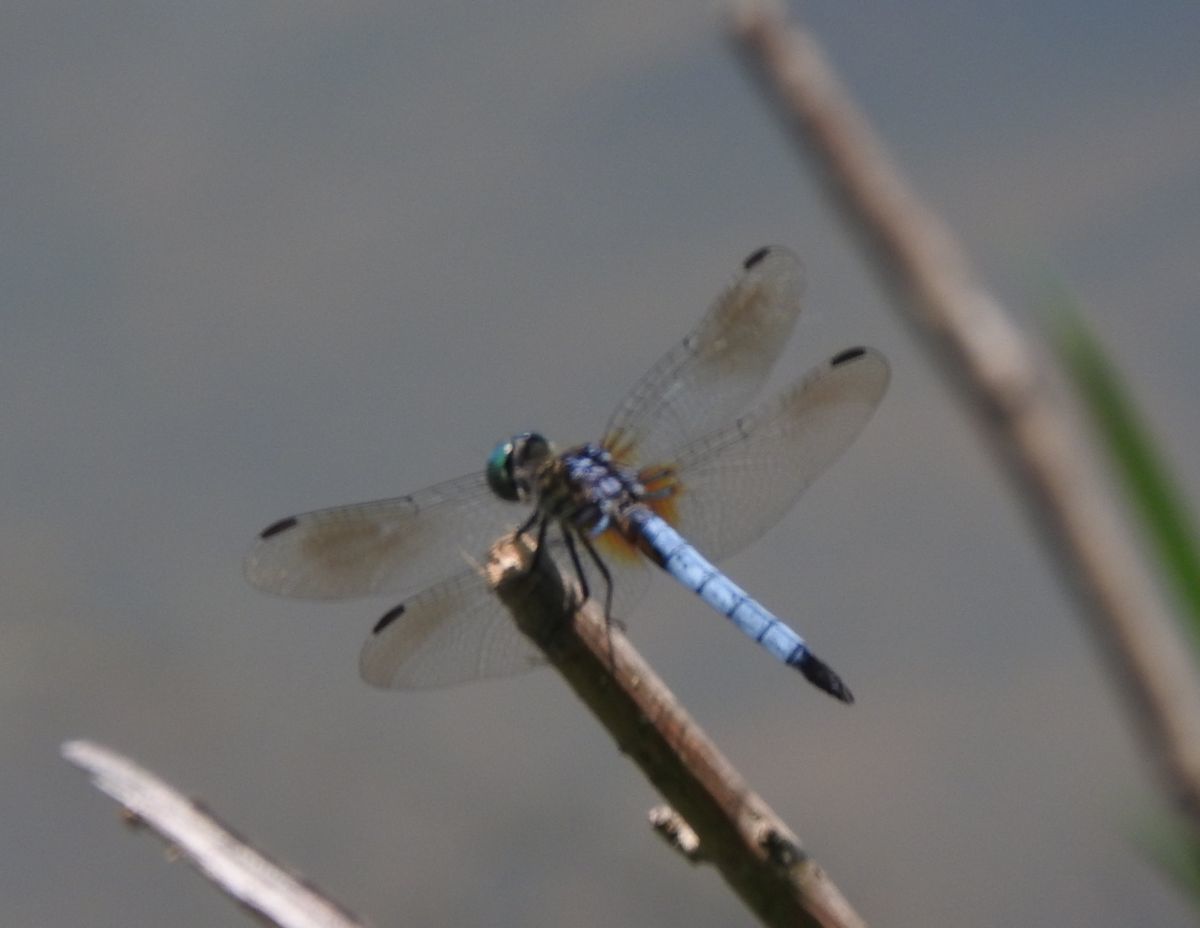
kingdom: Animalia
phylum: Arthropoda
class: Insecta
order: Odonata
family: Libellulidae
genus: Pachydiplax
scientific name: Pachydiplax longipennis
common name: Blue dasher
